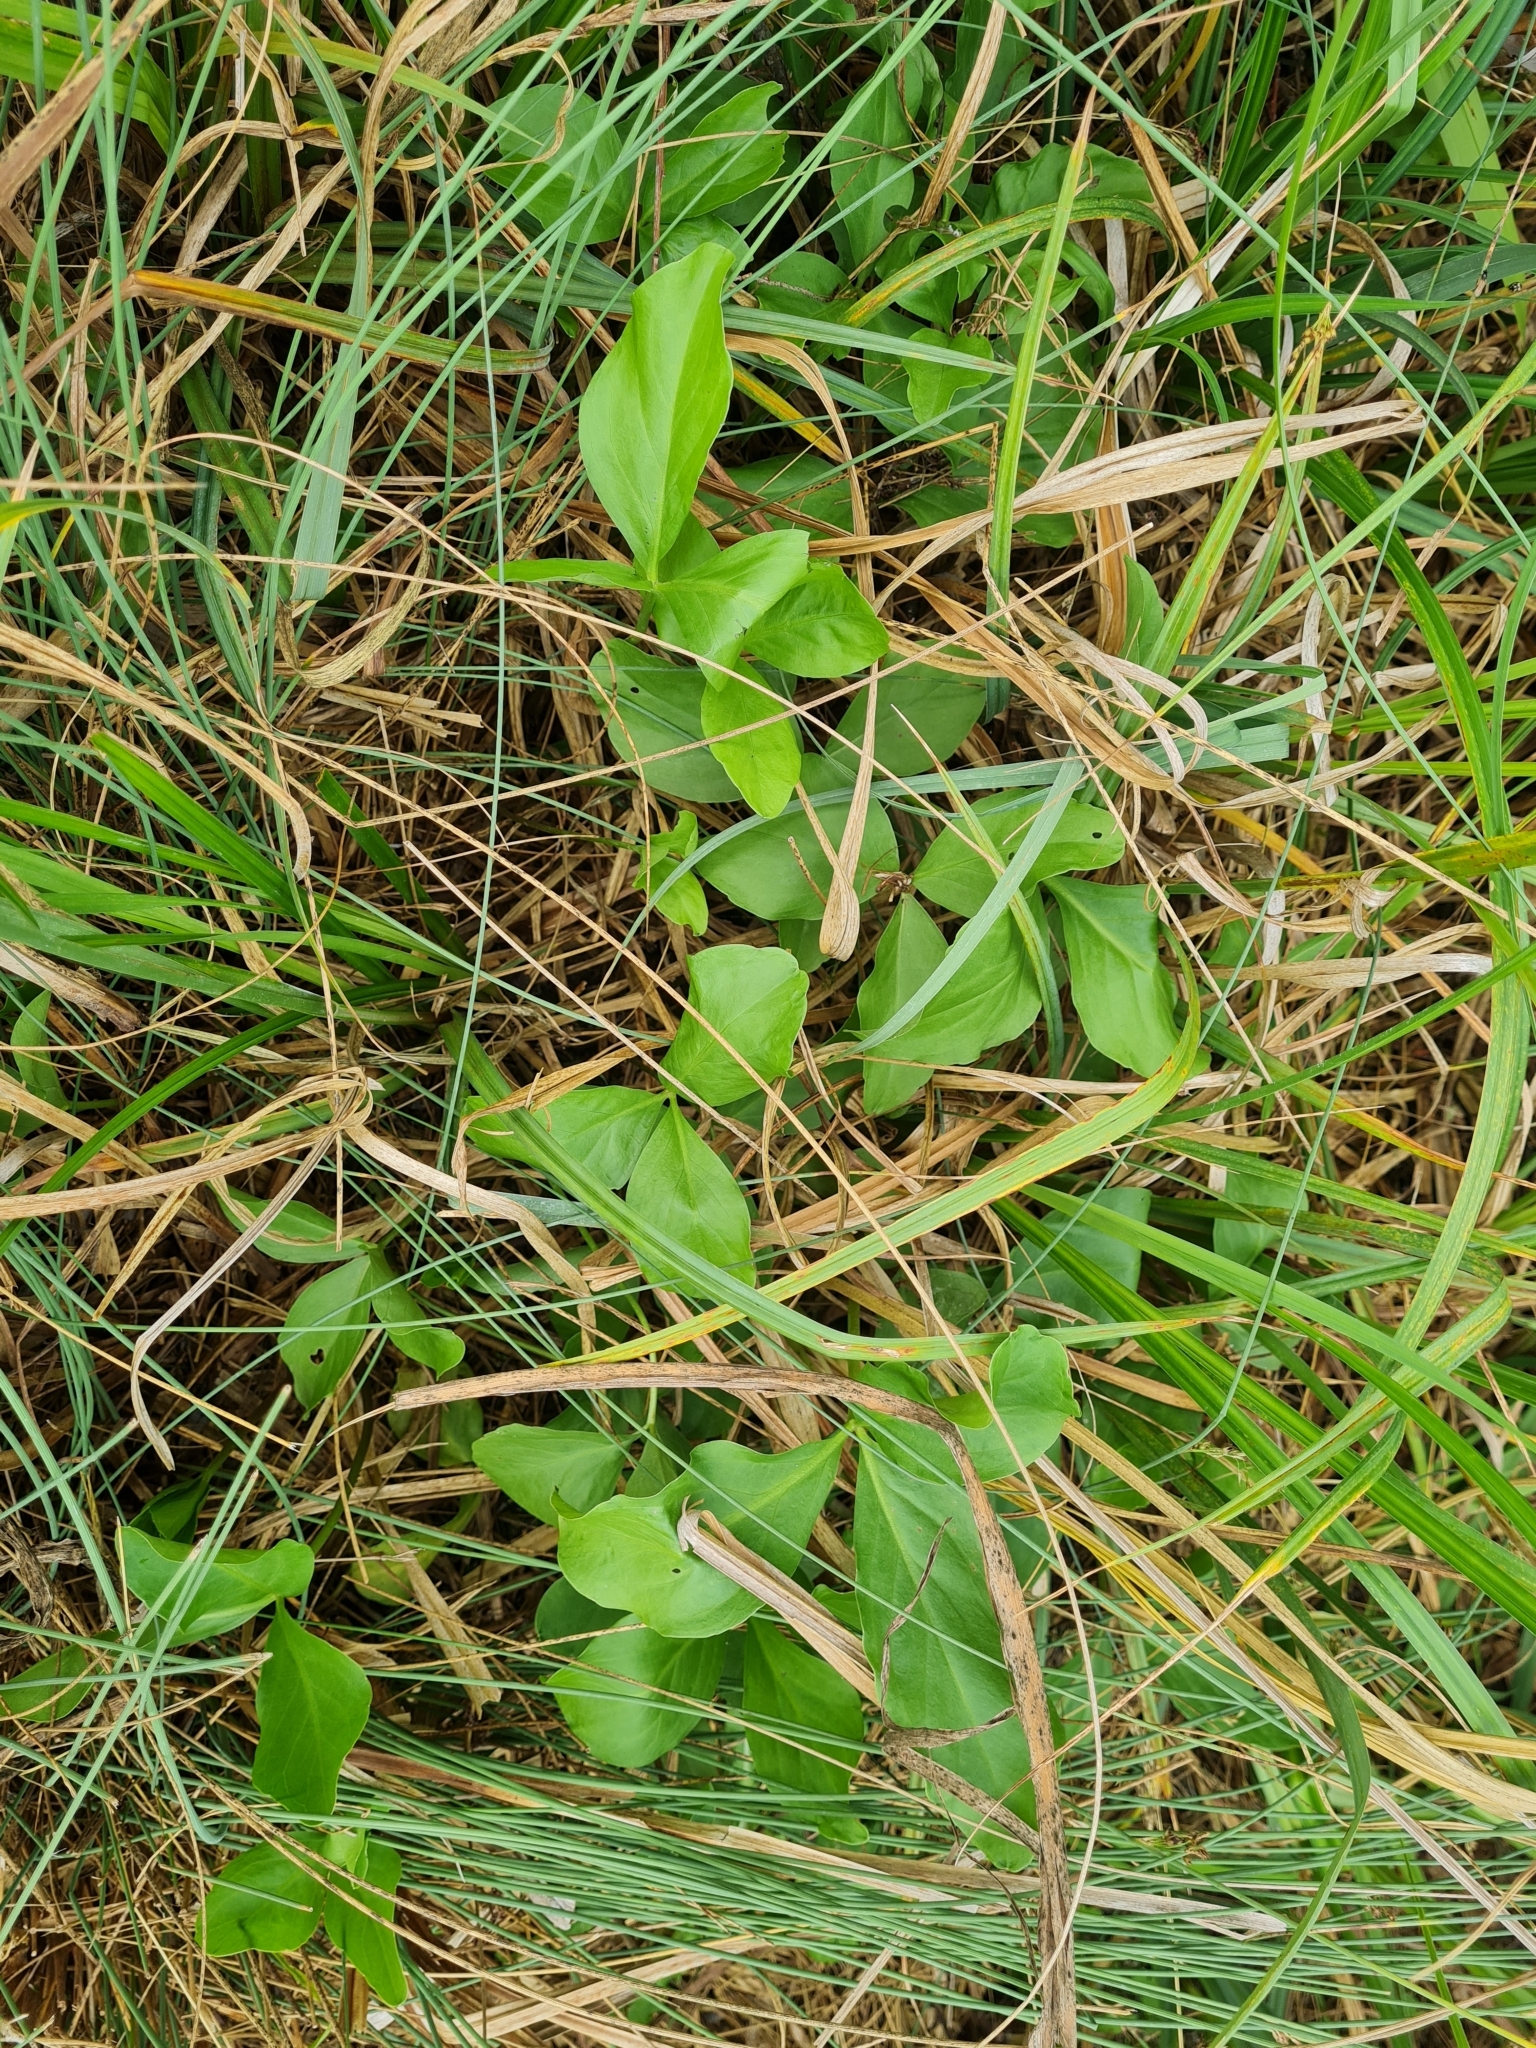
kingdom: Plantae
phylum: Tracheophyta
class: Magnoliopsida
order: Asterales
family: Menyanthaceae
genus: Menyanthes
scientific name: Menyanthes trifoliata
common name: Bogbean
